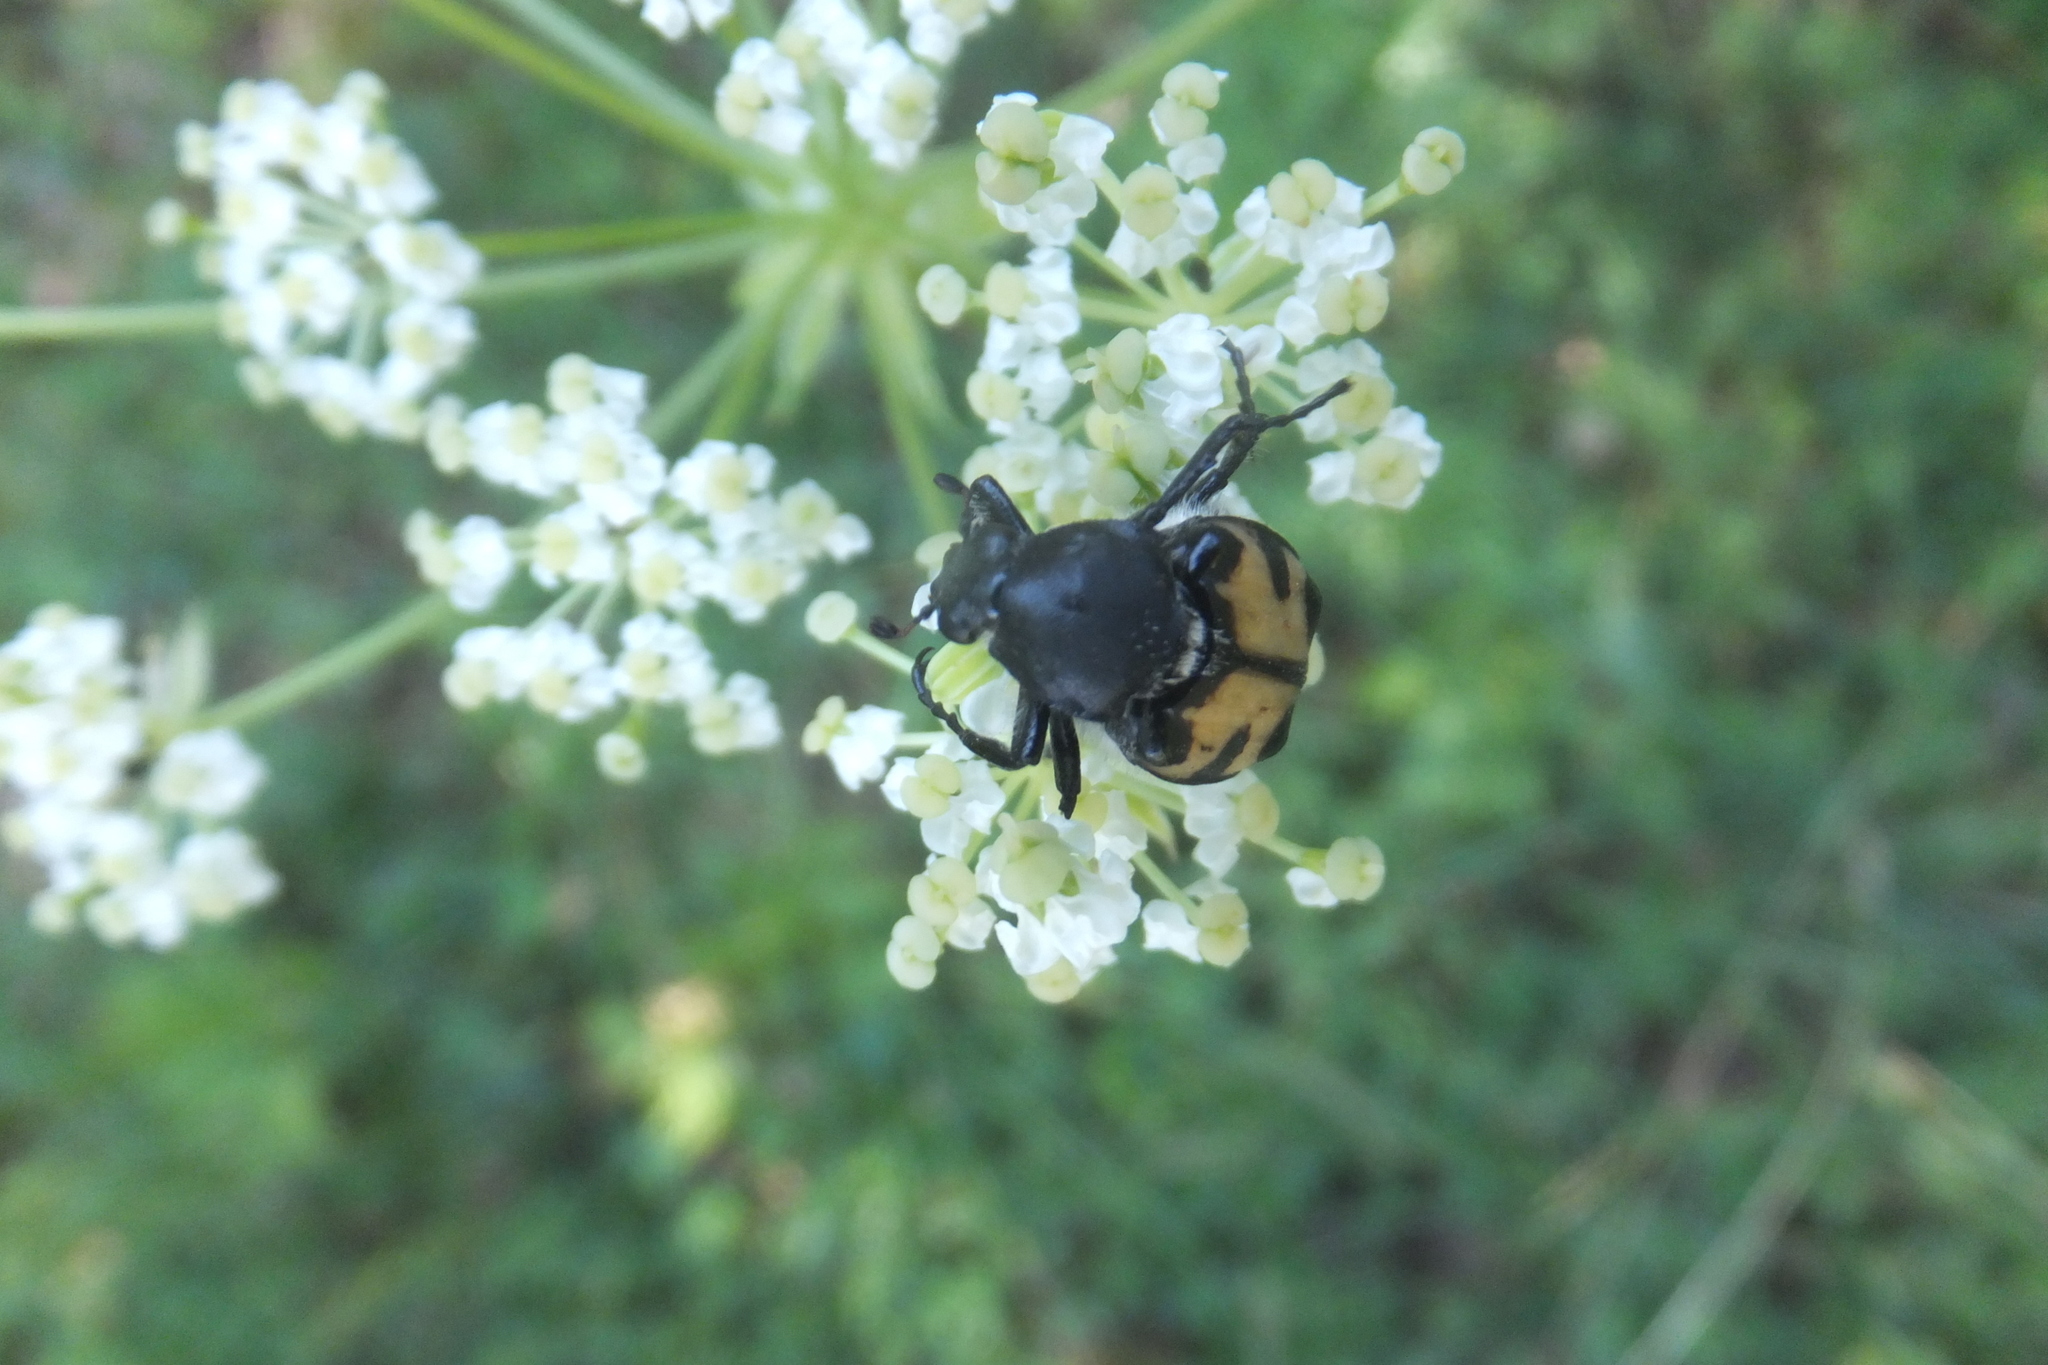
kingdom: Animalia
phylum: Arthropoda
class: Insecta
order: Coleoptera
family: Scarabaeidae
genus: Trichius
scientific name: Trichius fasciatus
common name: Bee beetle
